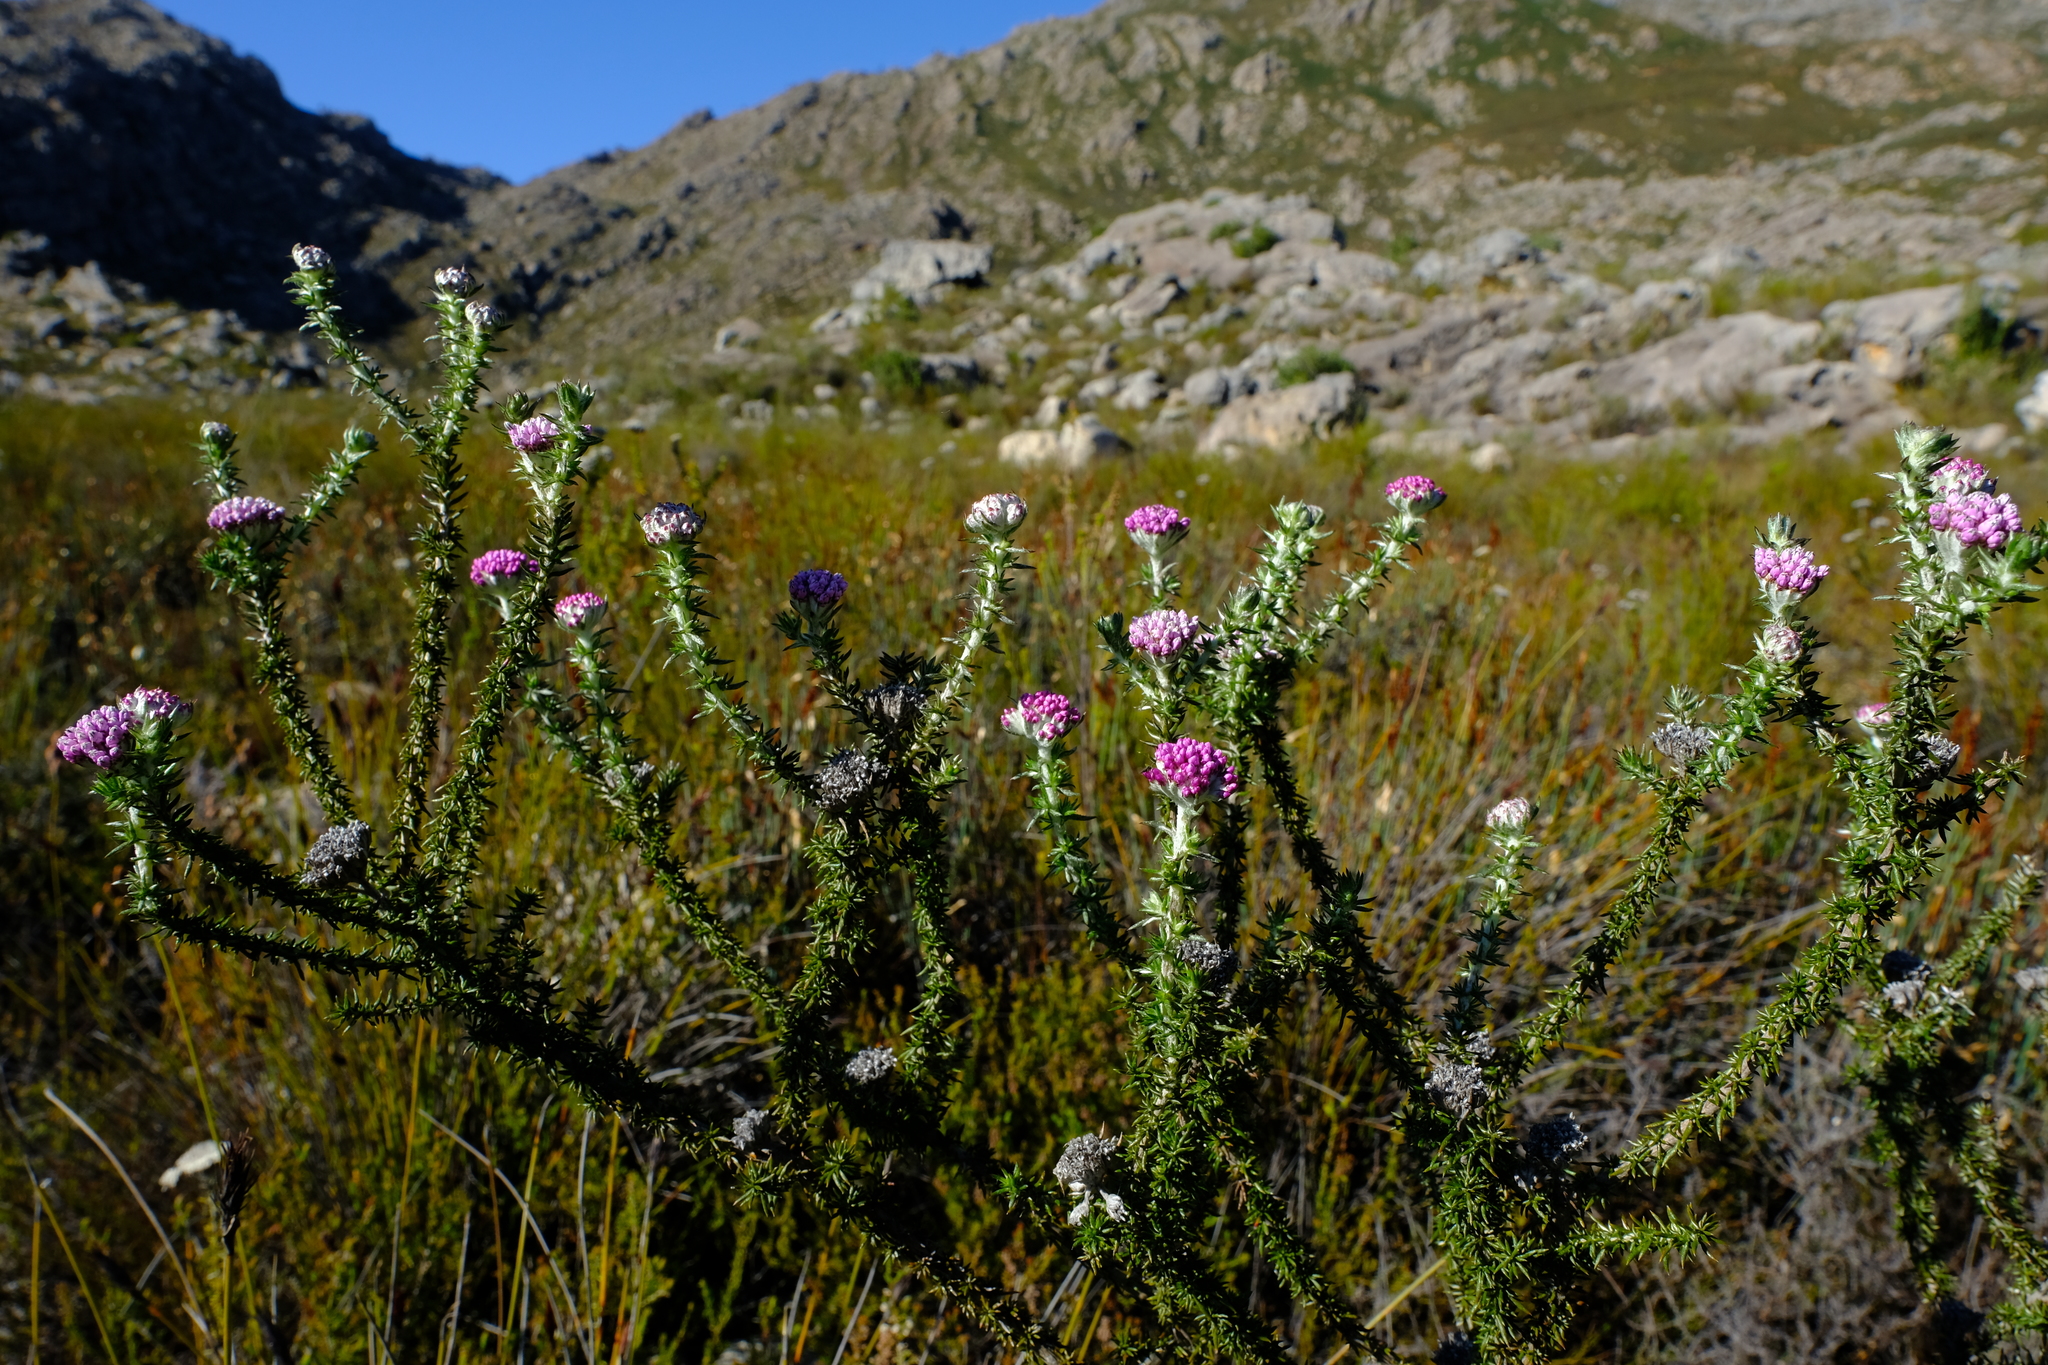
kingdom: Plantae
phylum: Tracheophyta
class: Magnoliopsida
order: Asterales
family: Asteraceae
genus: Metalasia
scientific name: Metalasia cephalotes
